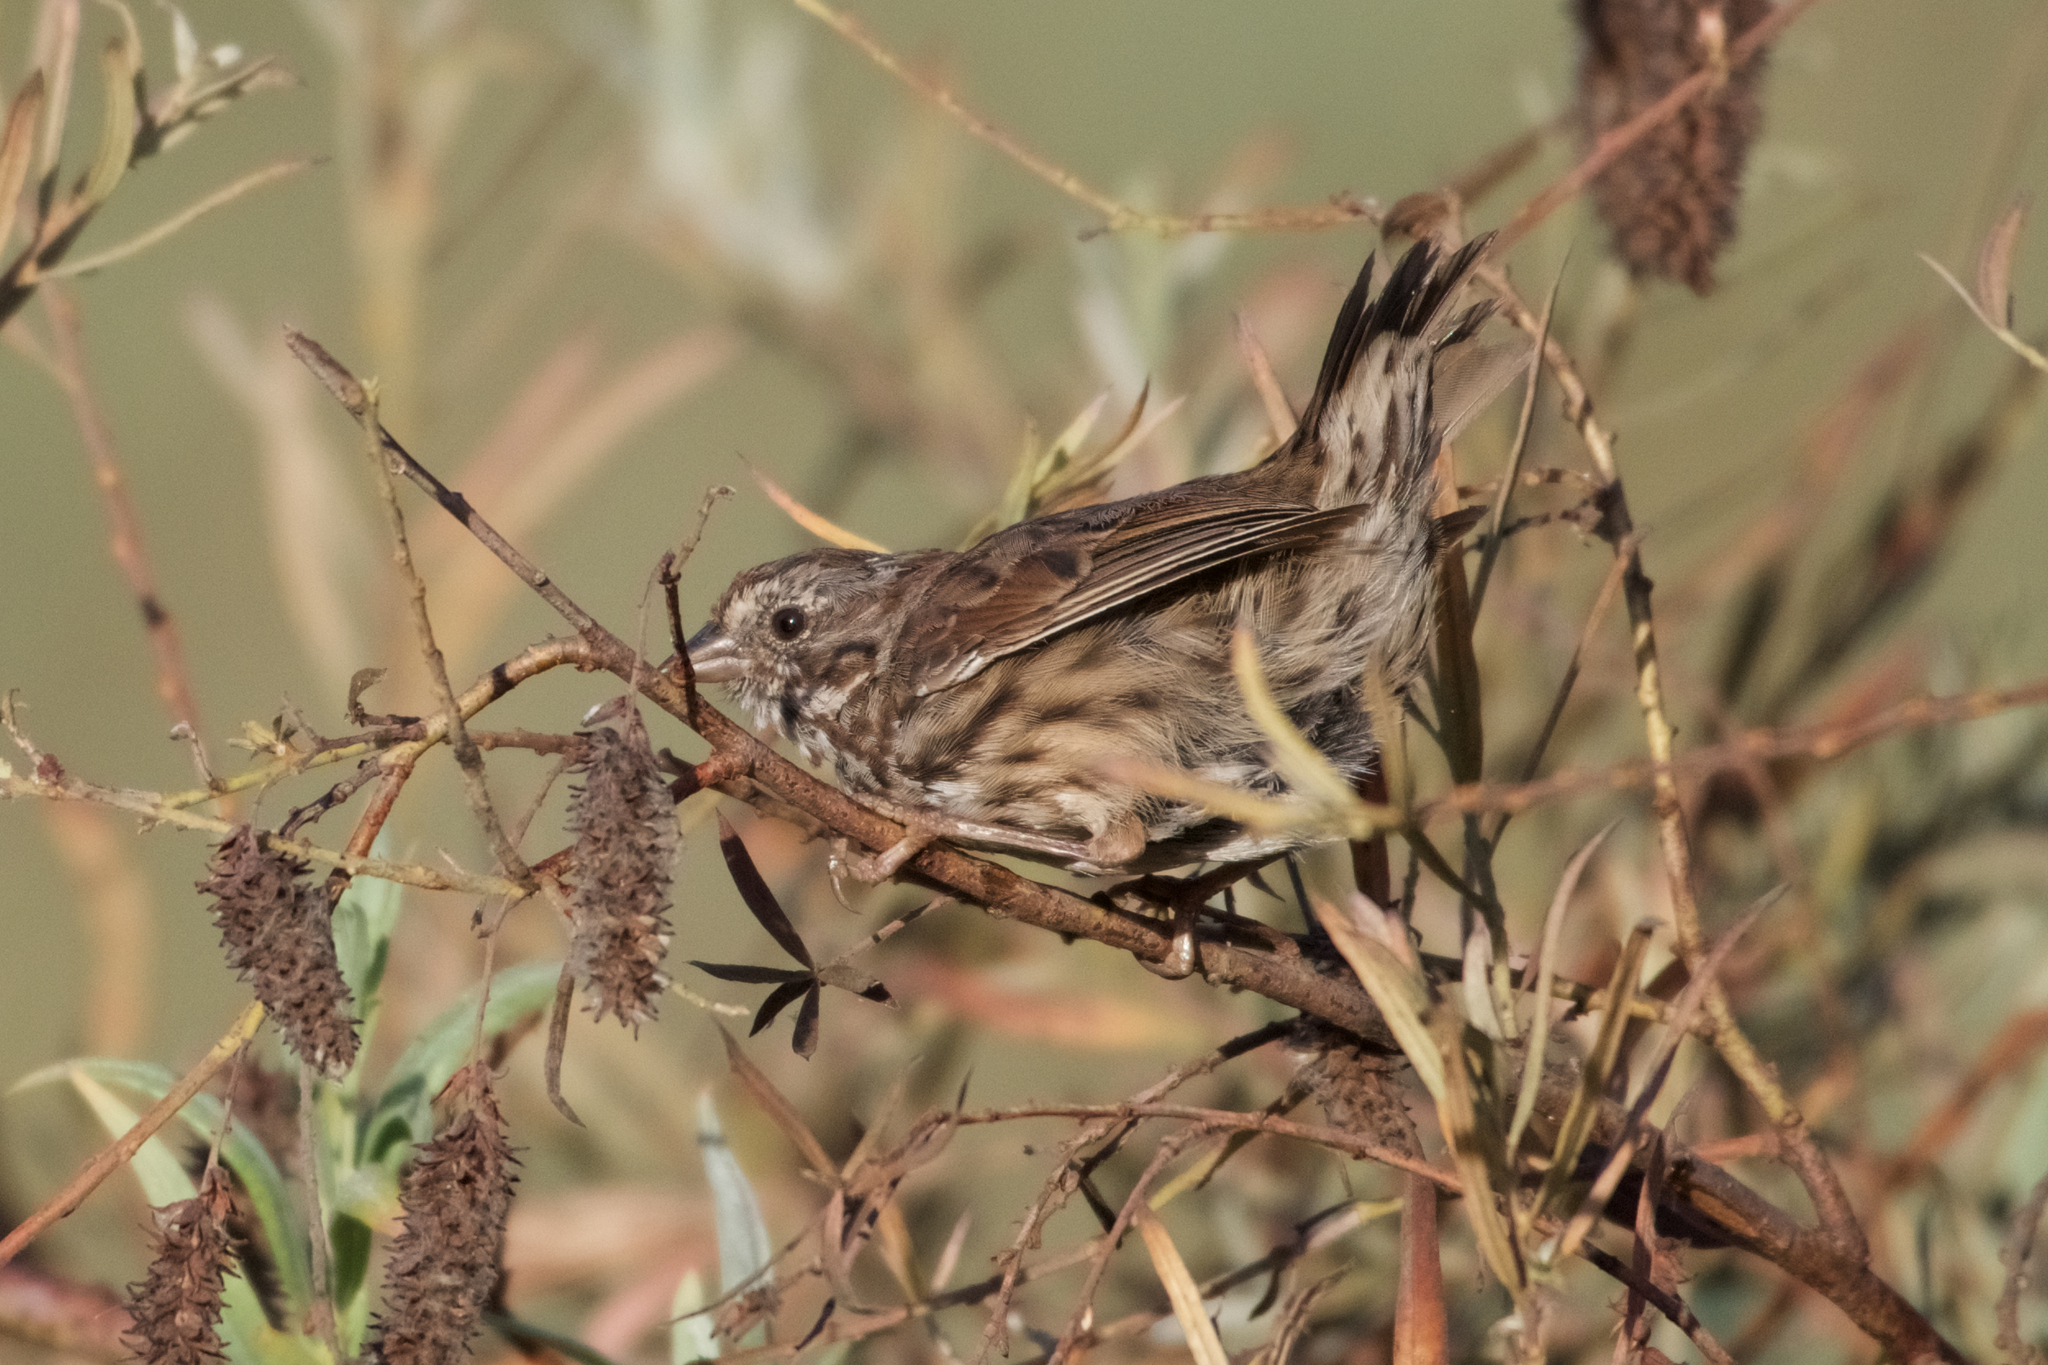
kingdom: Animalia
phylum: Chordata
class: Aves
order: Passeriformes
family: Passerellidae
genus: Melospiza
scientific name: Melospiza melodia
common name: Song sparrow
